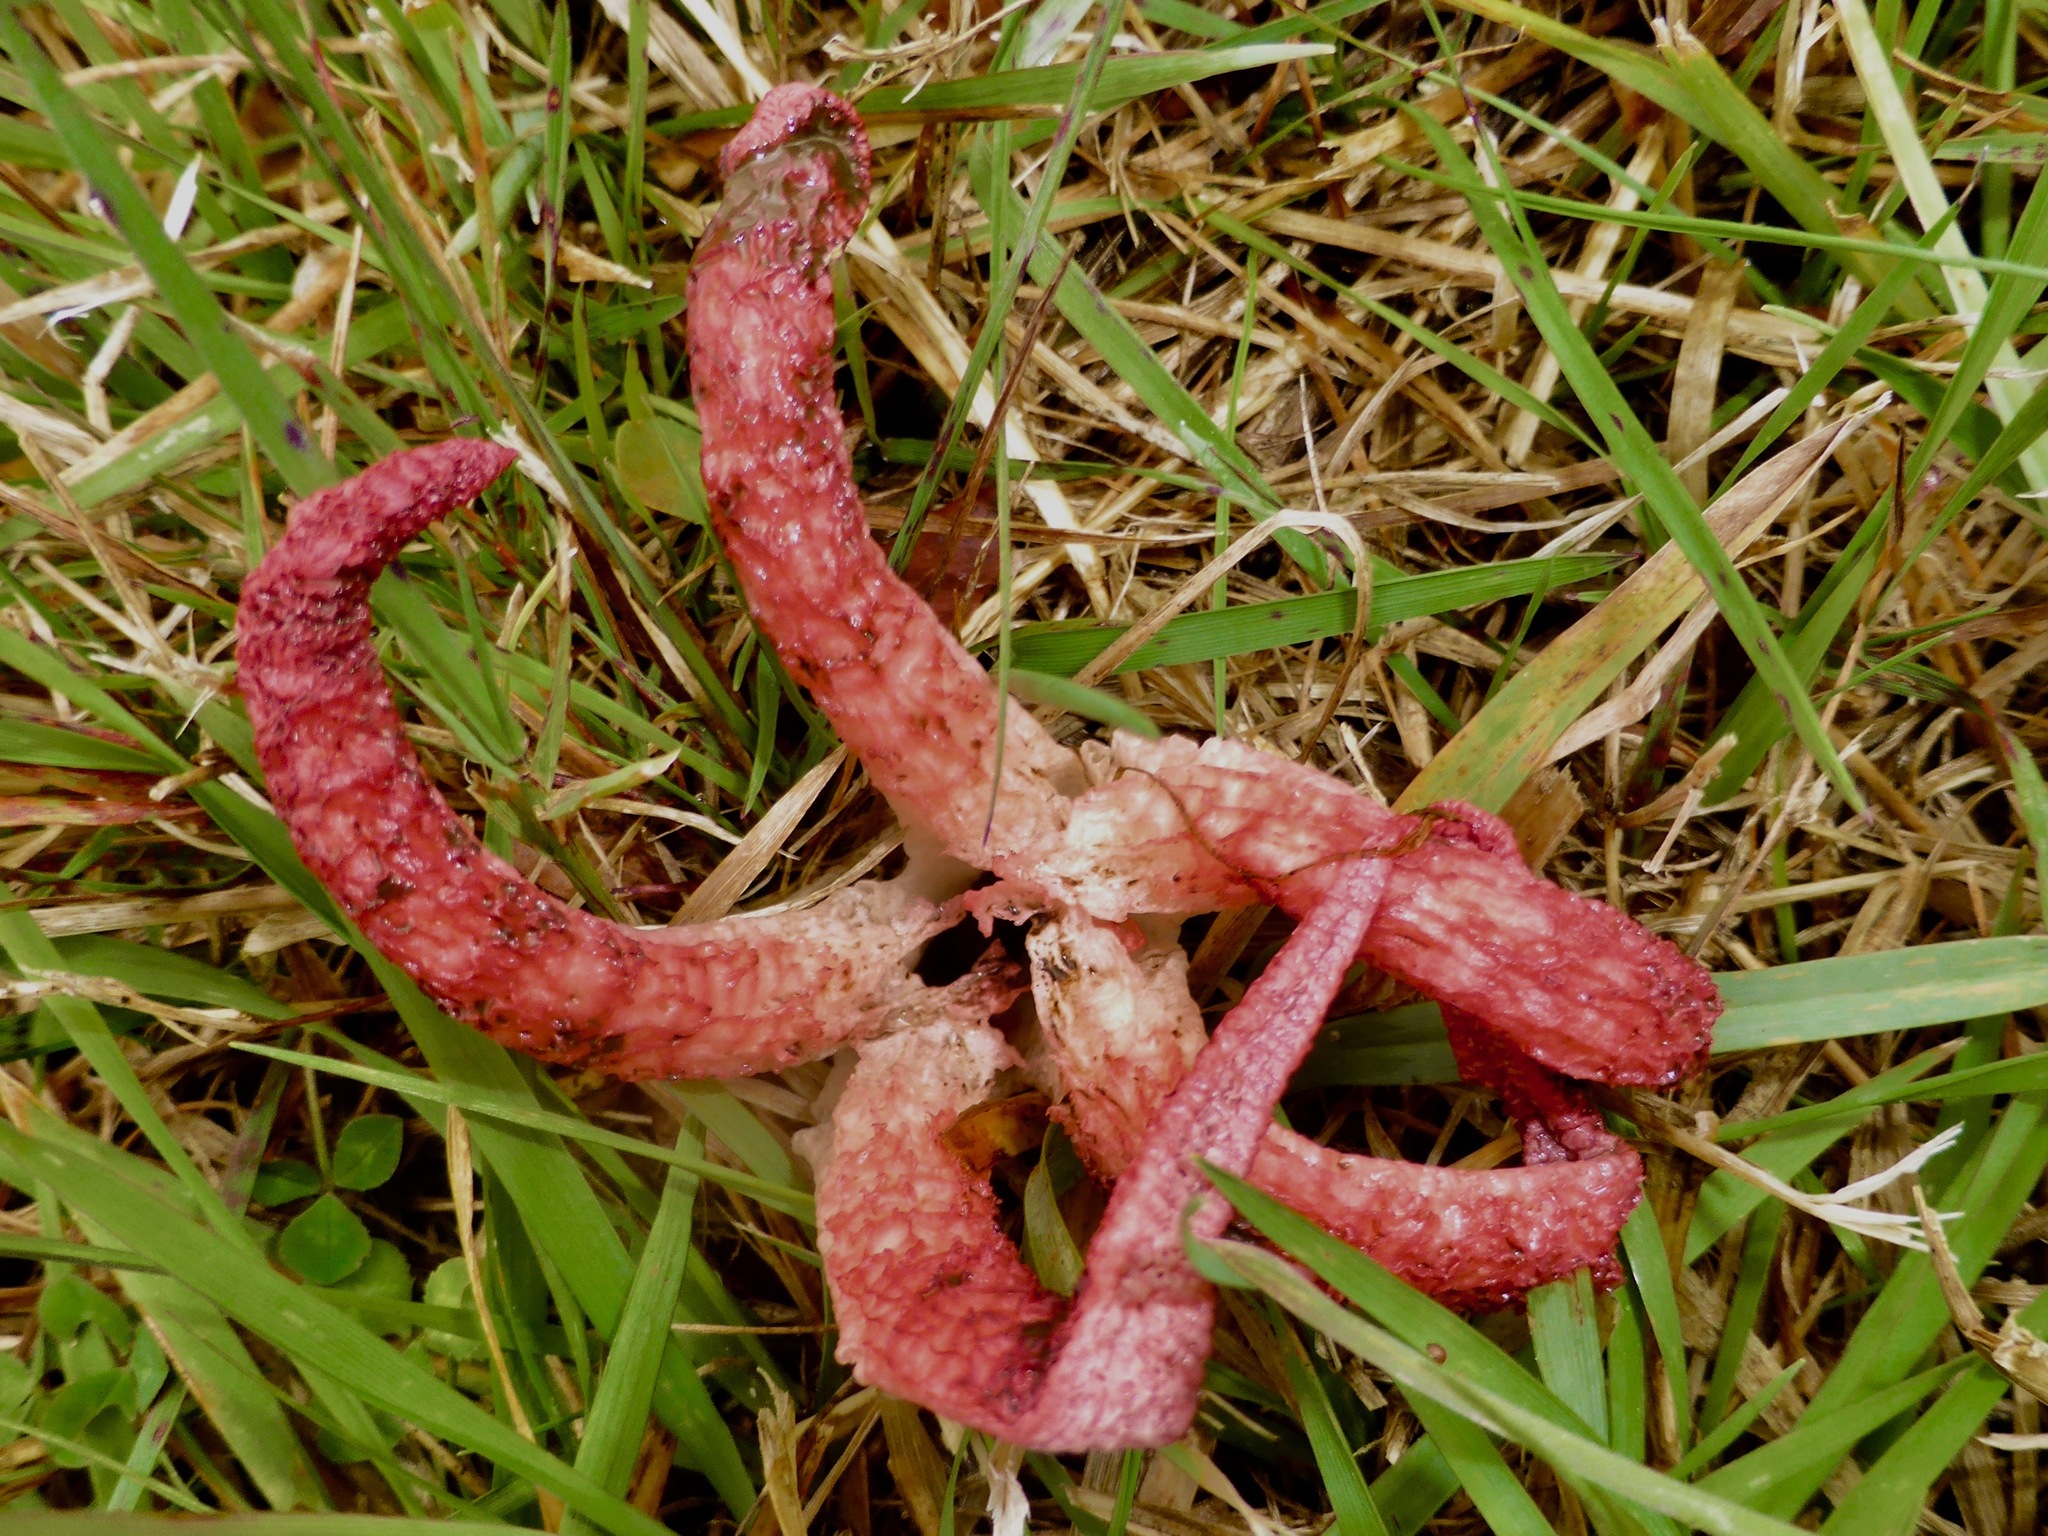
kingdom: Fungi
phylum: Basidiomycota
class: Agaricomycetes
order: Phallales
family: Phallaceae
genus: Clathrus
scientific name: Clathrus archeri
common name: Devil's fingers
